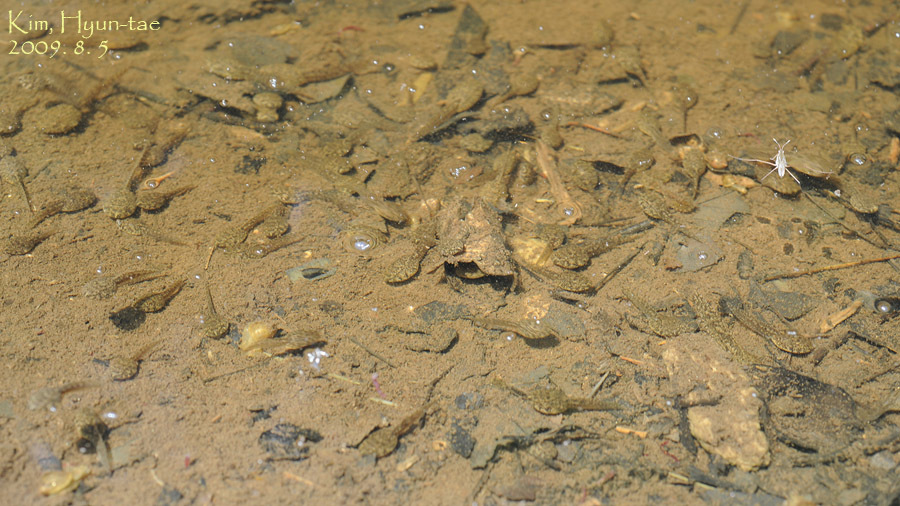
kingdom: Animalia
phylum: Chordata
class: Amphibia
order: Anura
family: Ranidae
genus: Glandirana
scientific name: Glandirana emeljanovi
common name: Northeast china rough-skinned frog
